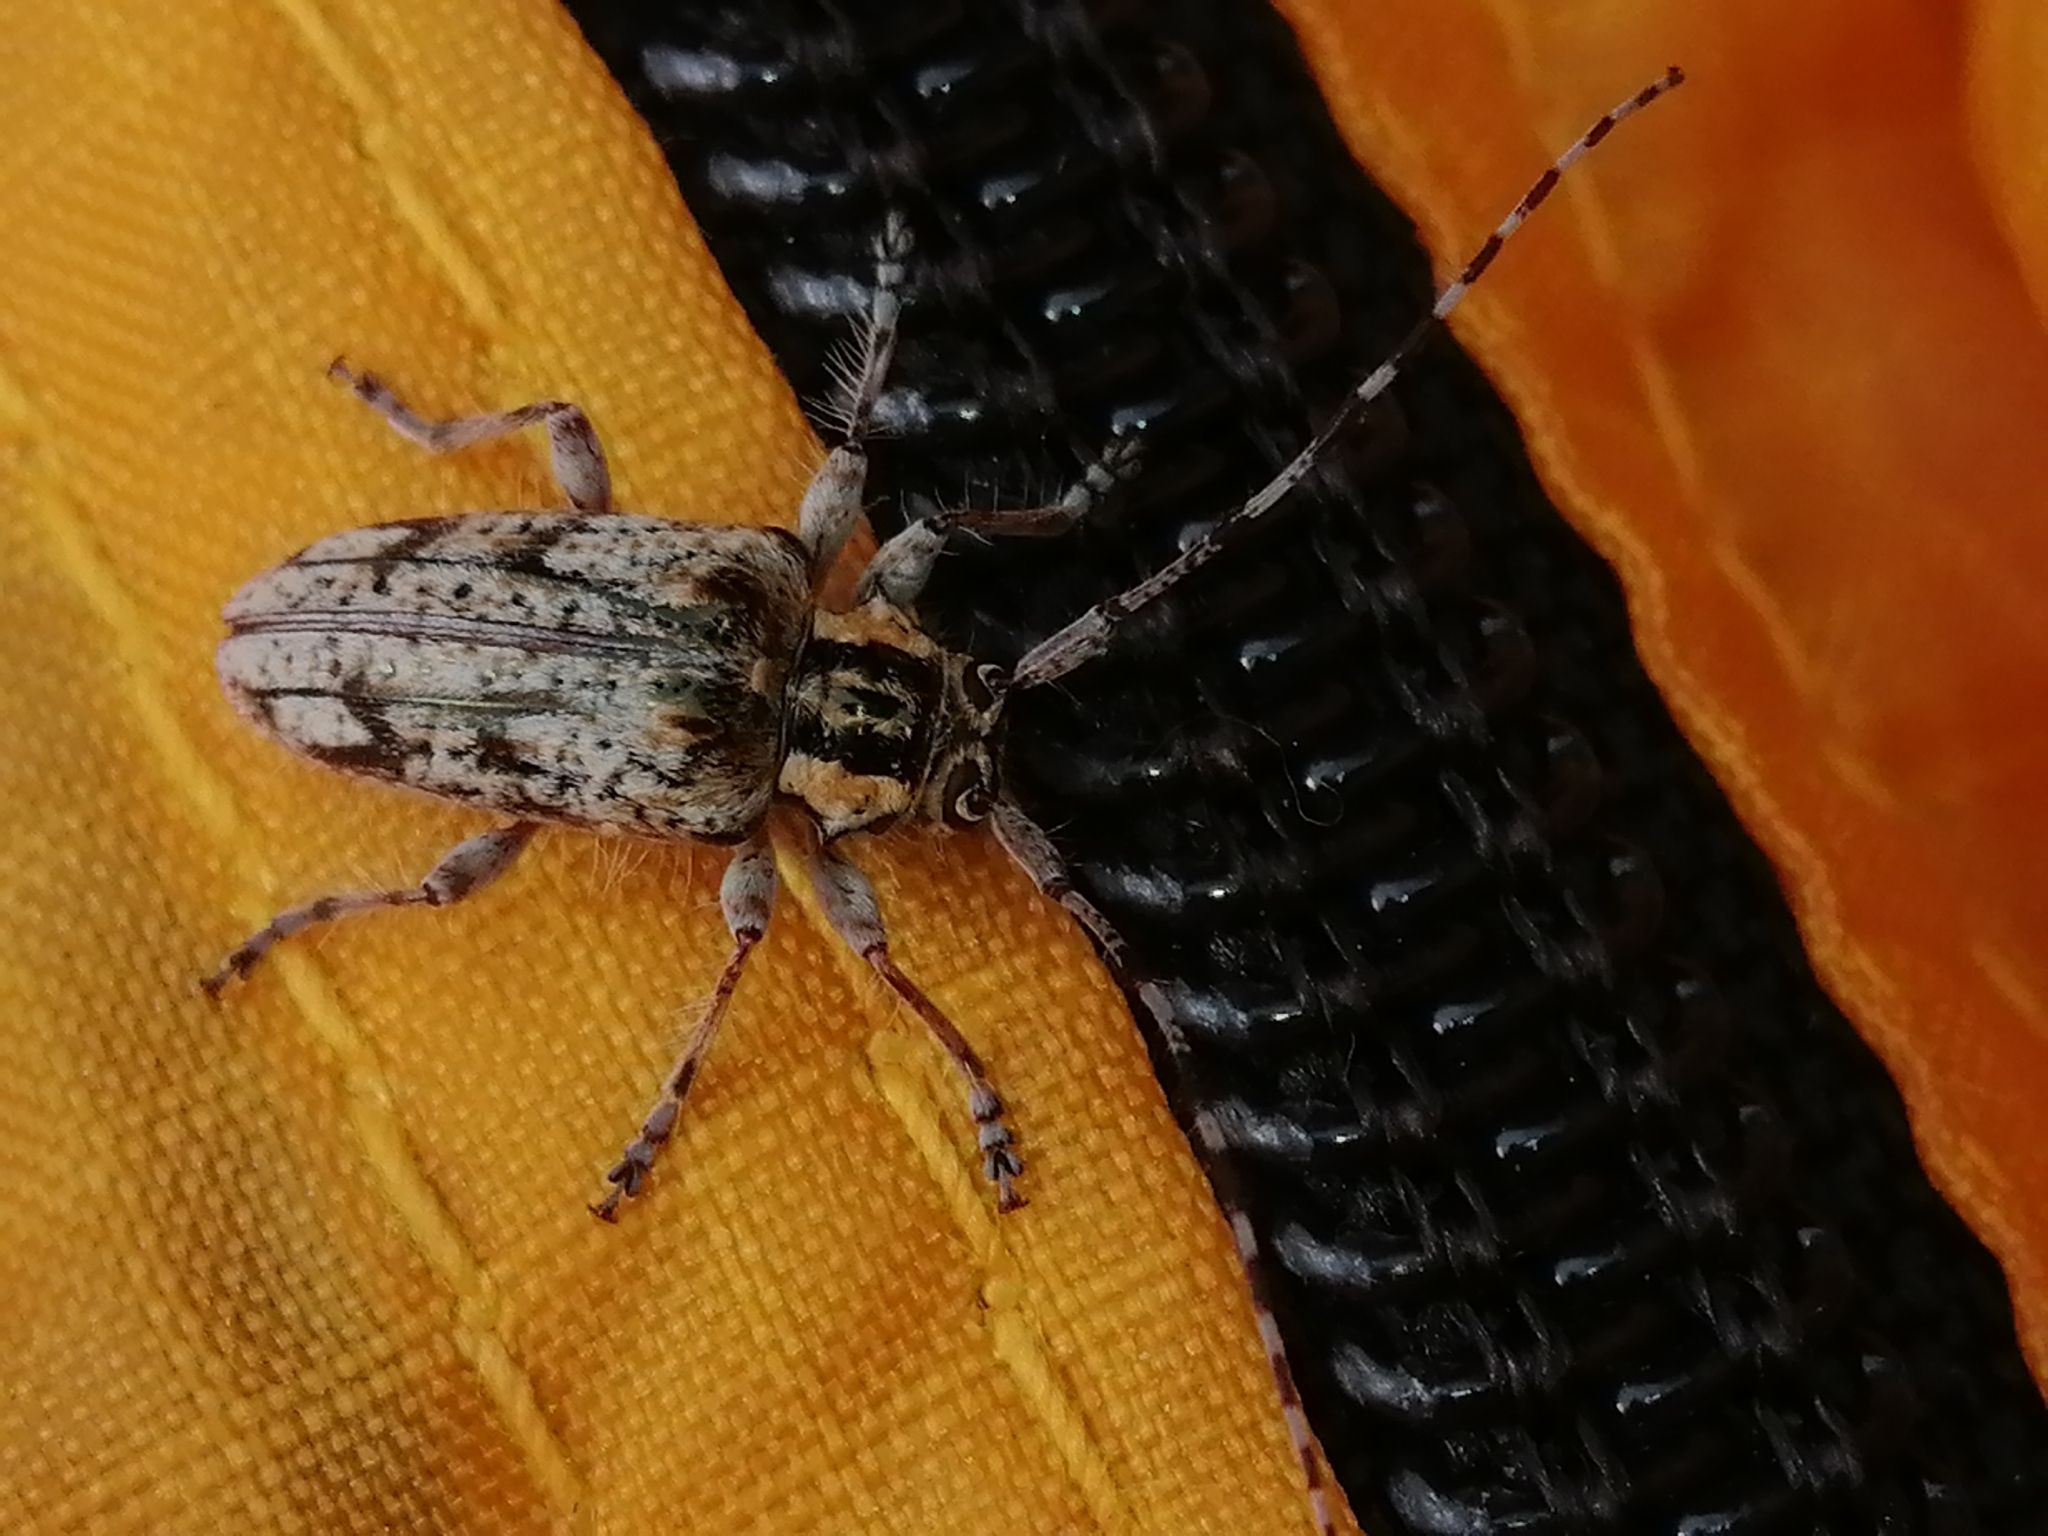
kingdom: Animalia
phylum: Arthropoda
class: Insecta
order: Coleoptera
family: Cerambycidae
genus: Metalamia
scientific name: Metalamia cuprea
